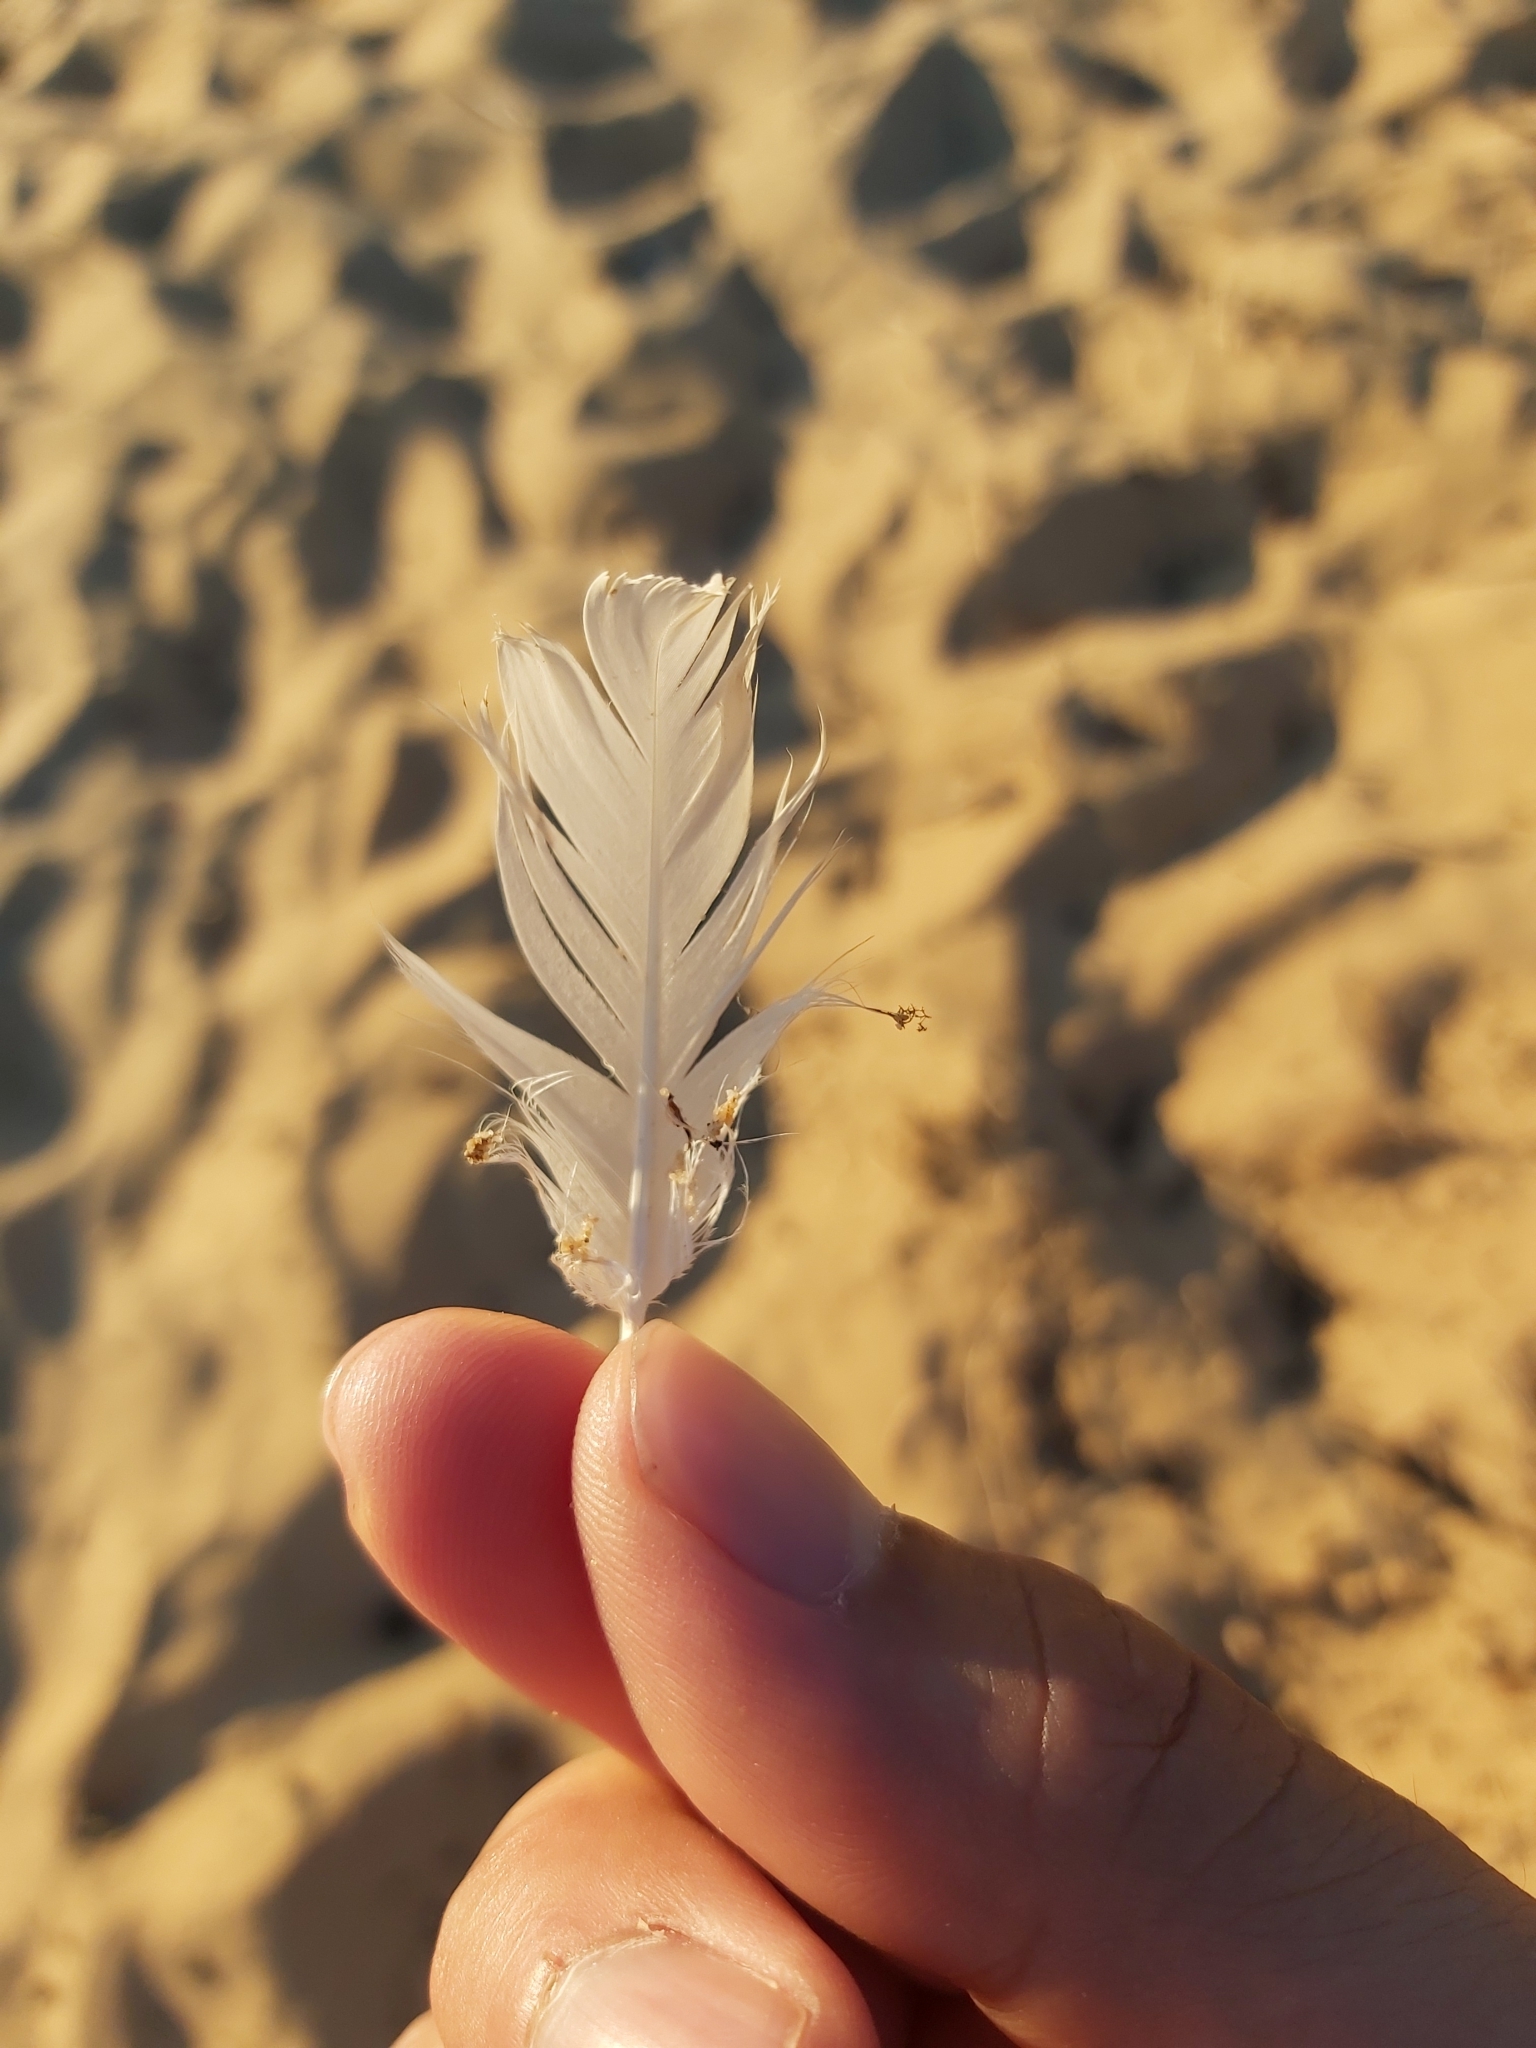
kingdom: Animalia
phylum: Chordata
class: Aves
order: Charadriiformes
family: Laridae
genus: Chroicocephalus
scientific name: Chroicocephalus novaehollandiae
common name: Silver gull
